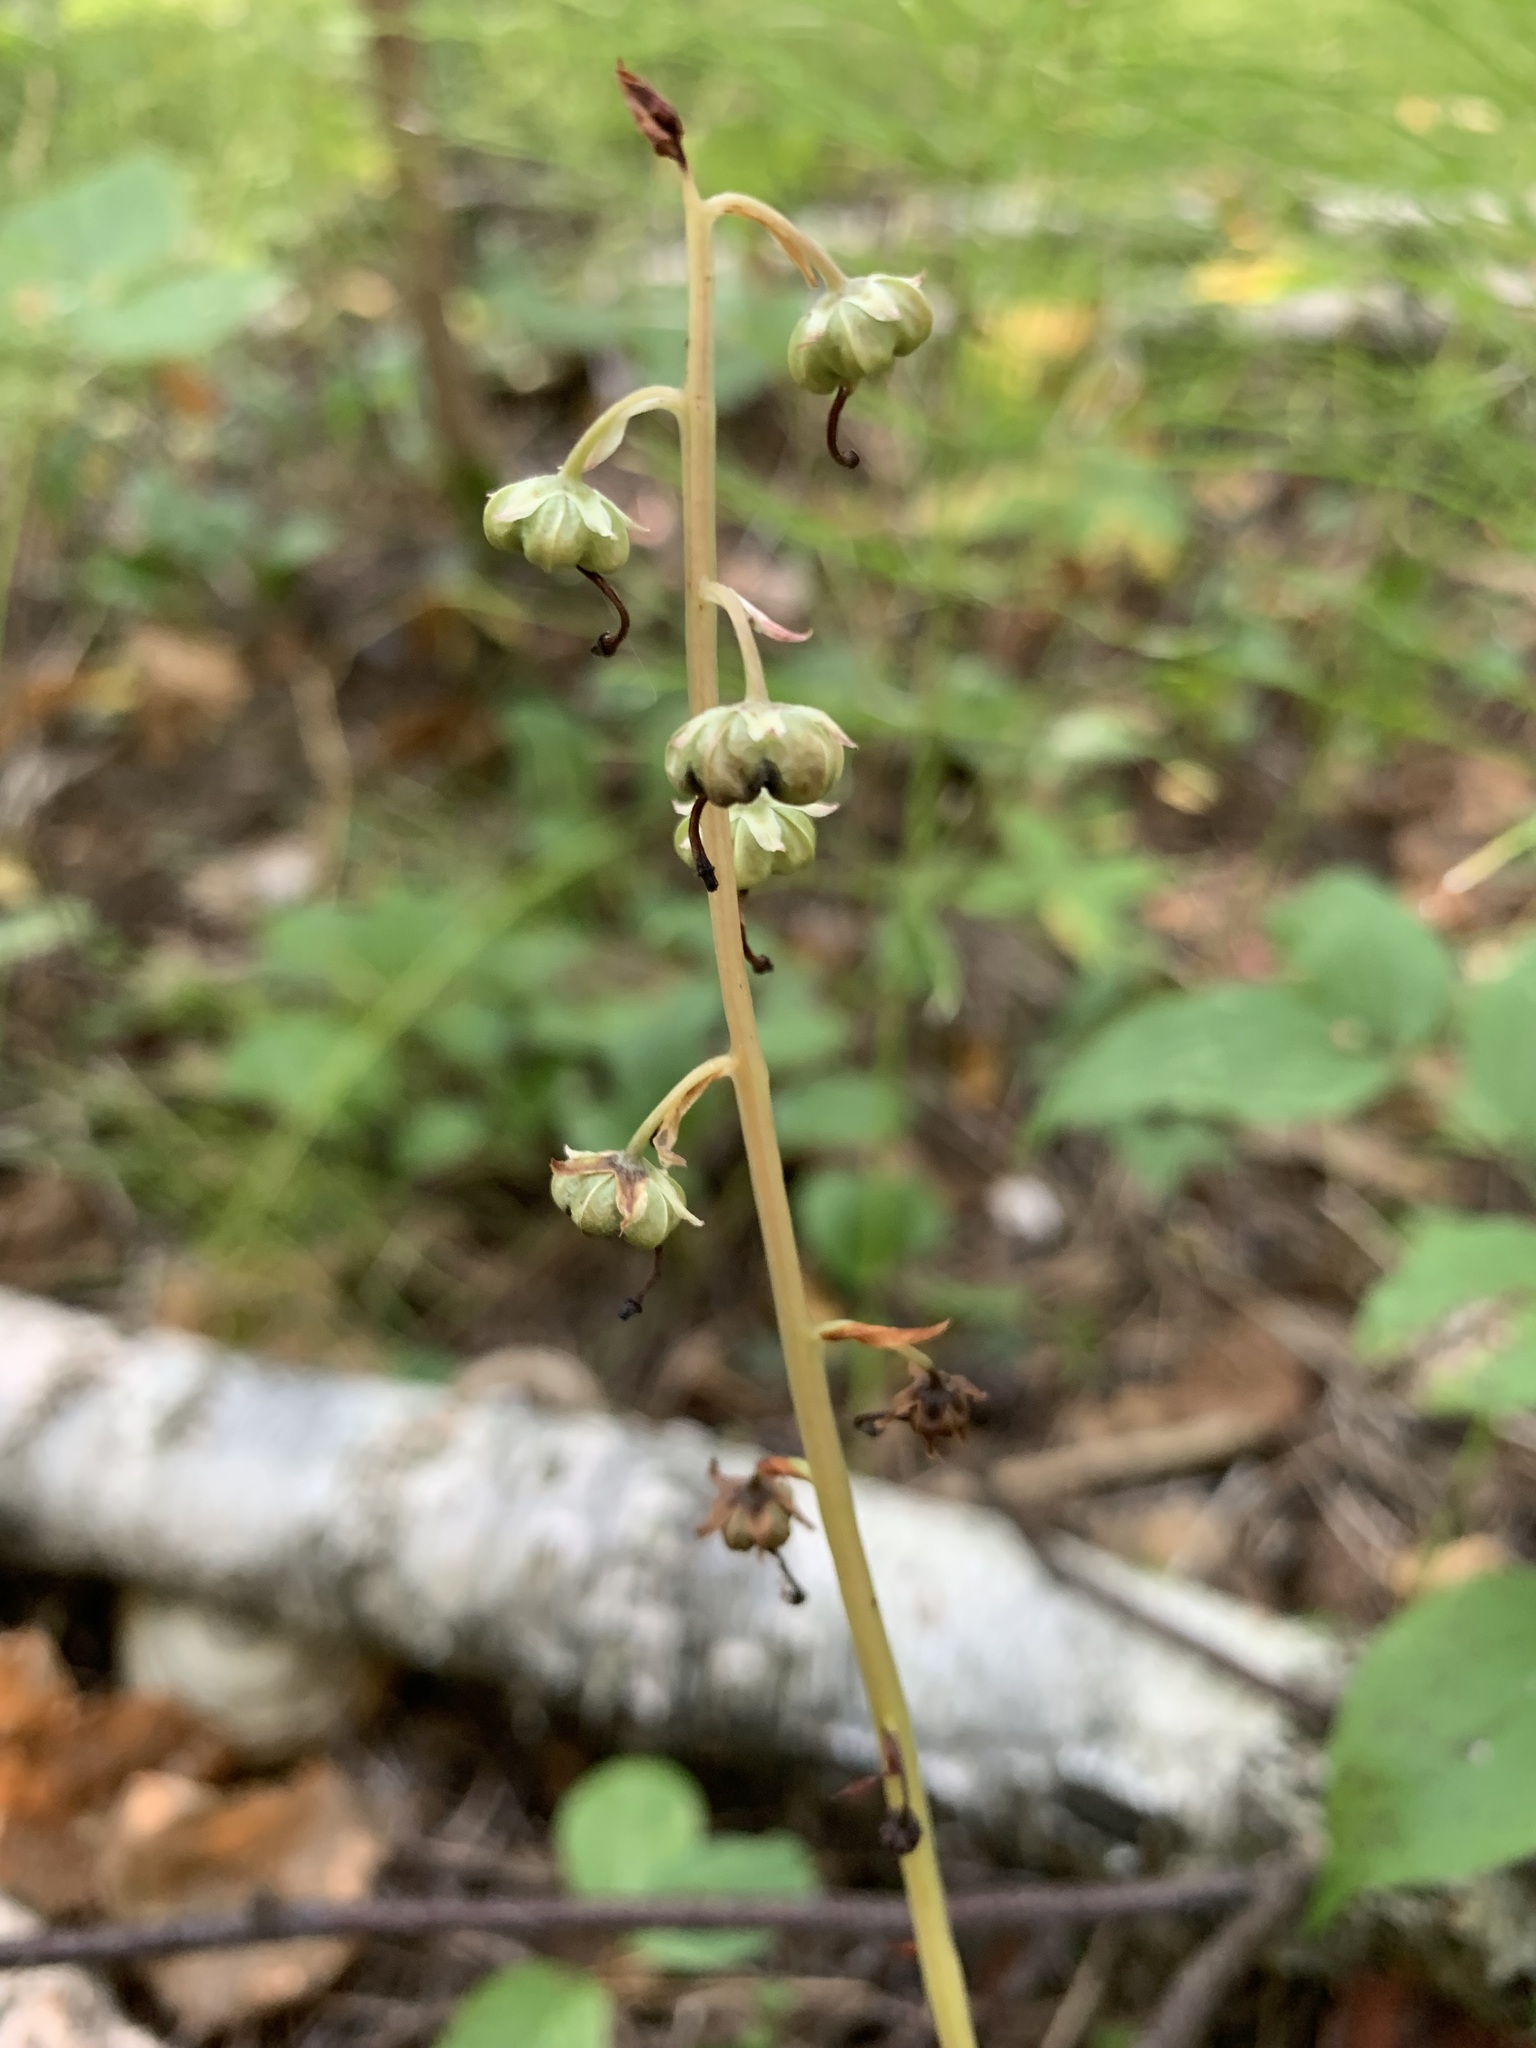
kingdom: Plantae
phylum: Tracheophyta
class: Magnoliopsida
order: Ericales
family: Ericaceae
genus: Pyrola
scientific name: Pyrola rotundifolia
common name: Round-leaved wintergreen
